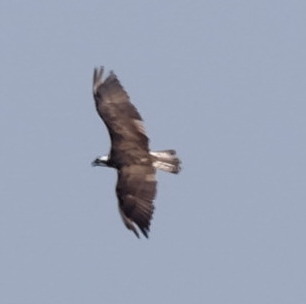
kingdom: Animalia
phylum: Chordata
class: Aves
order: Accipitriformes
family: Pandionidae
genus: Pandion
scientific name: Pandion haliaetus
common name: Osprey
